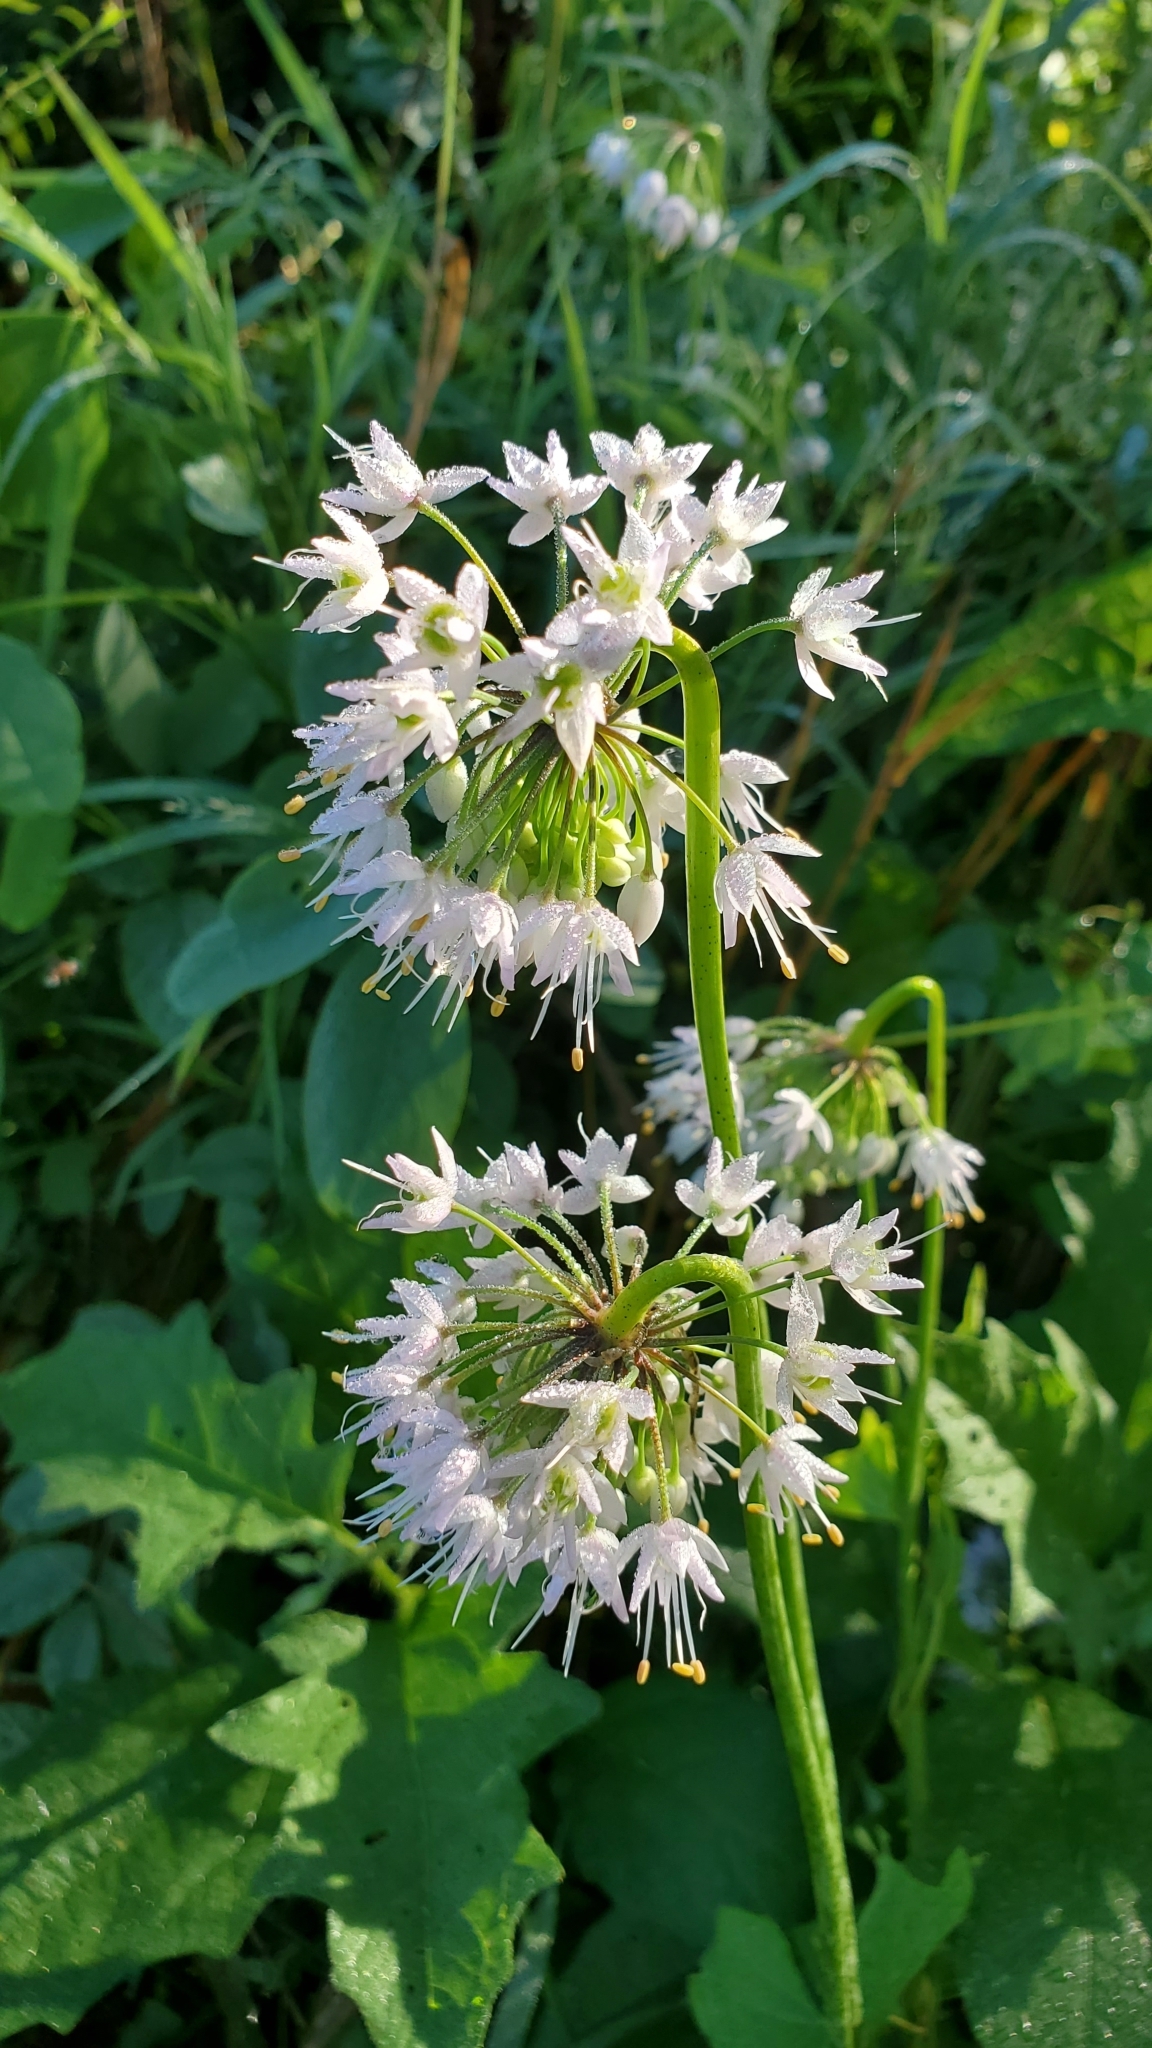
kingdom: Plantae
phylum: Tracheophyta
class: Liliopsida
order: Asparagales
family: Amaryllidaceae
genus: Allium
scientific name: Allium cernuum
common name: Nodding onion
